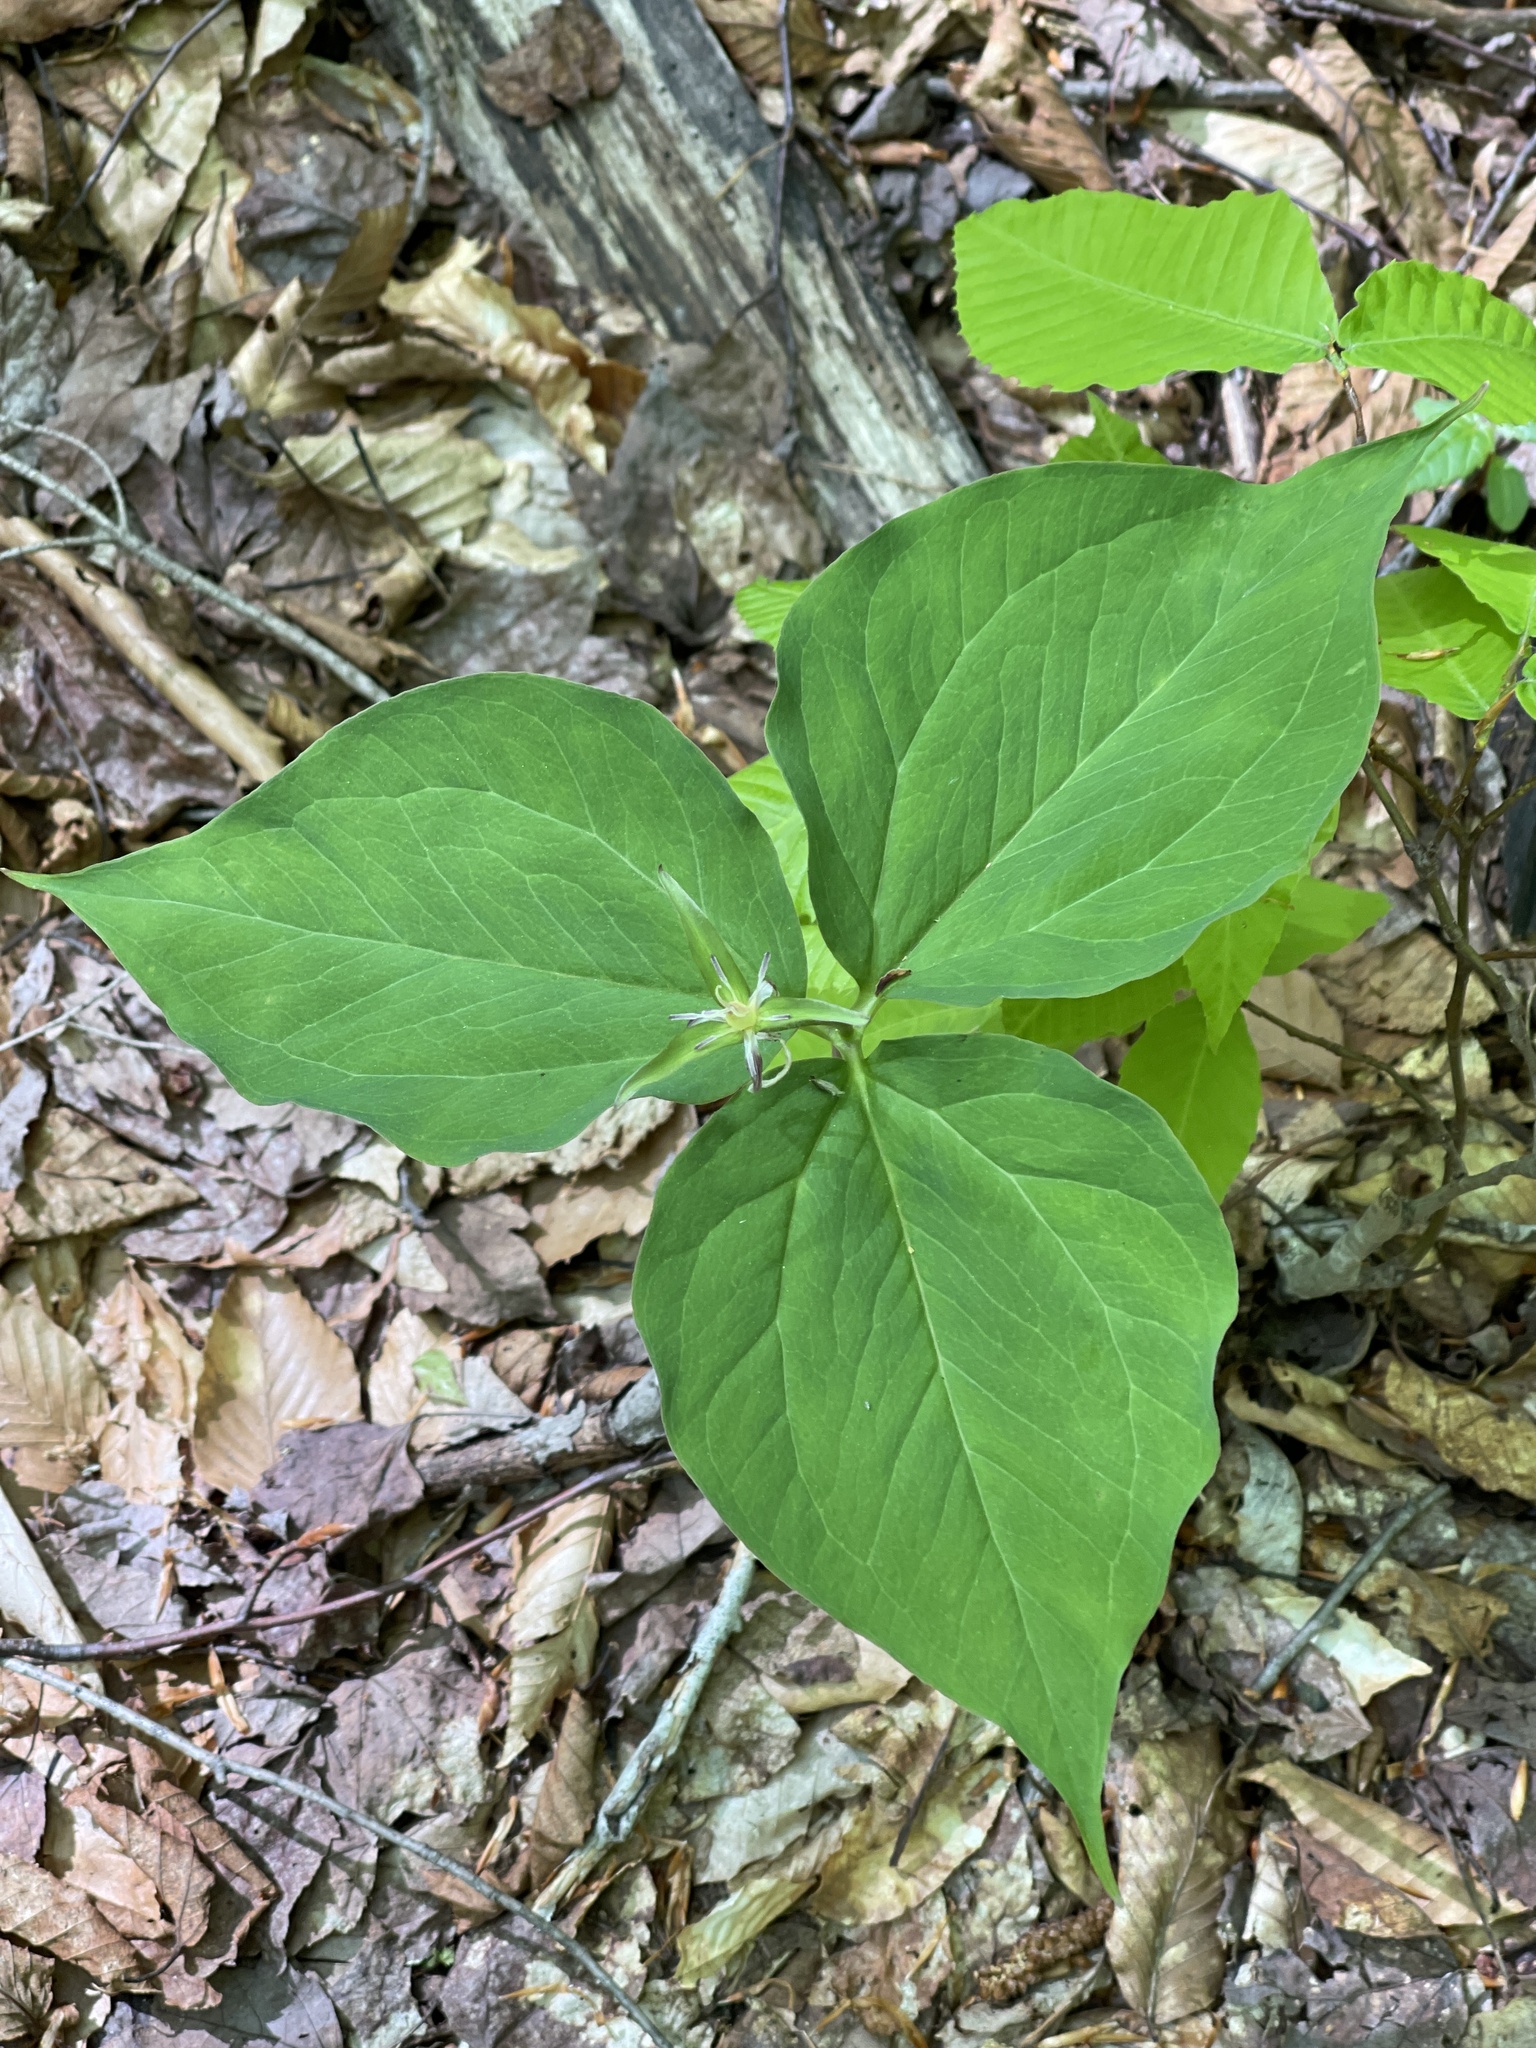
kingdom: Plantae
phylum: Tracheophyta
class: Liliopsida
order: Liliales
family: Melanthiaceae
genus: Trillium
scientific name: Trillium undulatum
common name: Paint trillium
